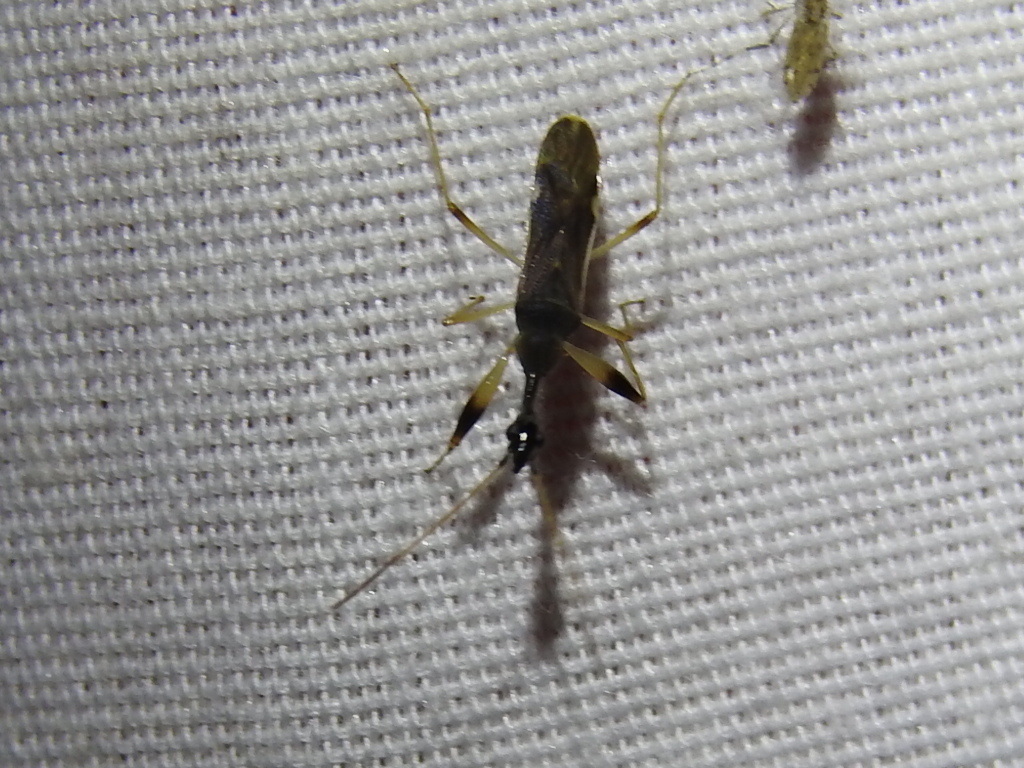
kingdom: Animalia
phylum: Arthropoda
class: Insecta
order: Hemiptera
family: Rhyparochromidae
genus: Myodocha
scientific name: Myodocha serripes
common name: Long-necked seed bug
